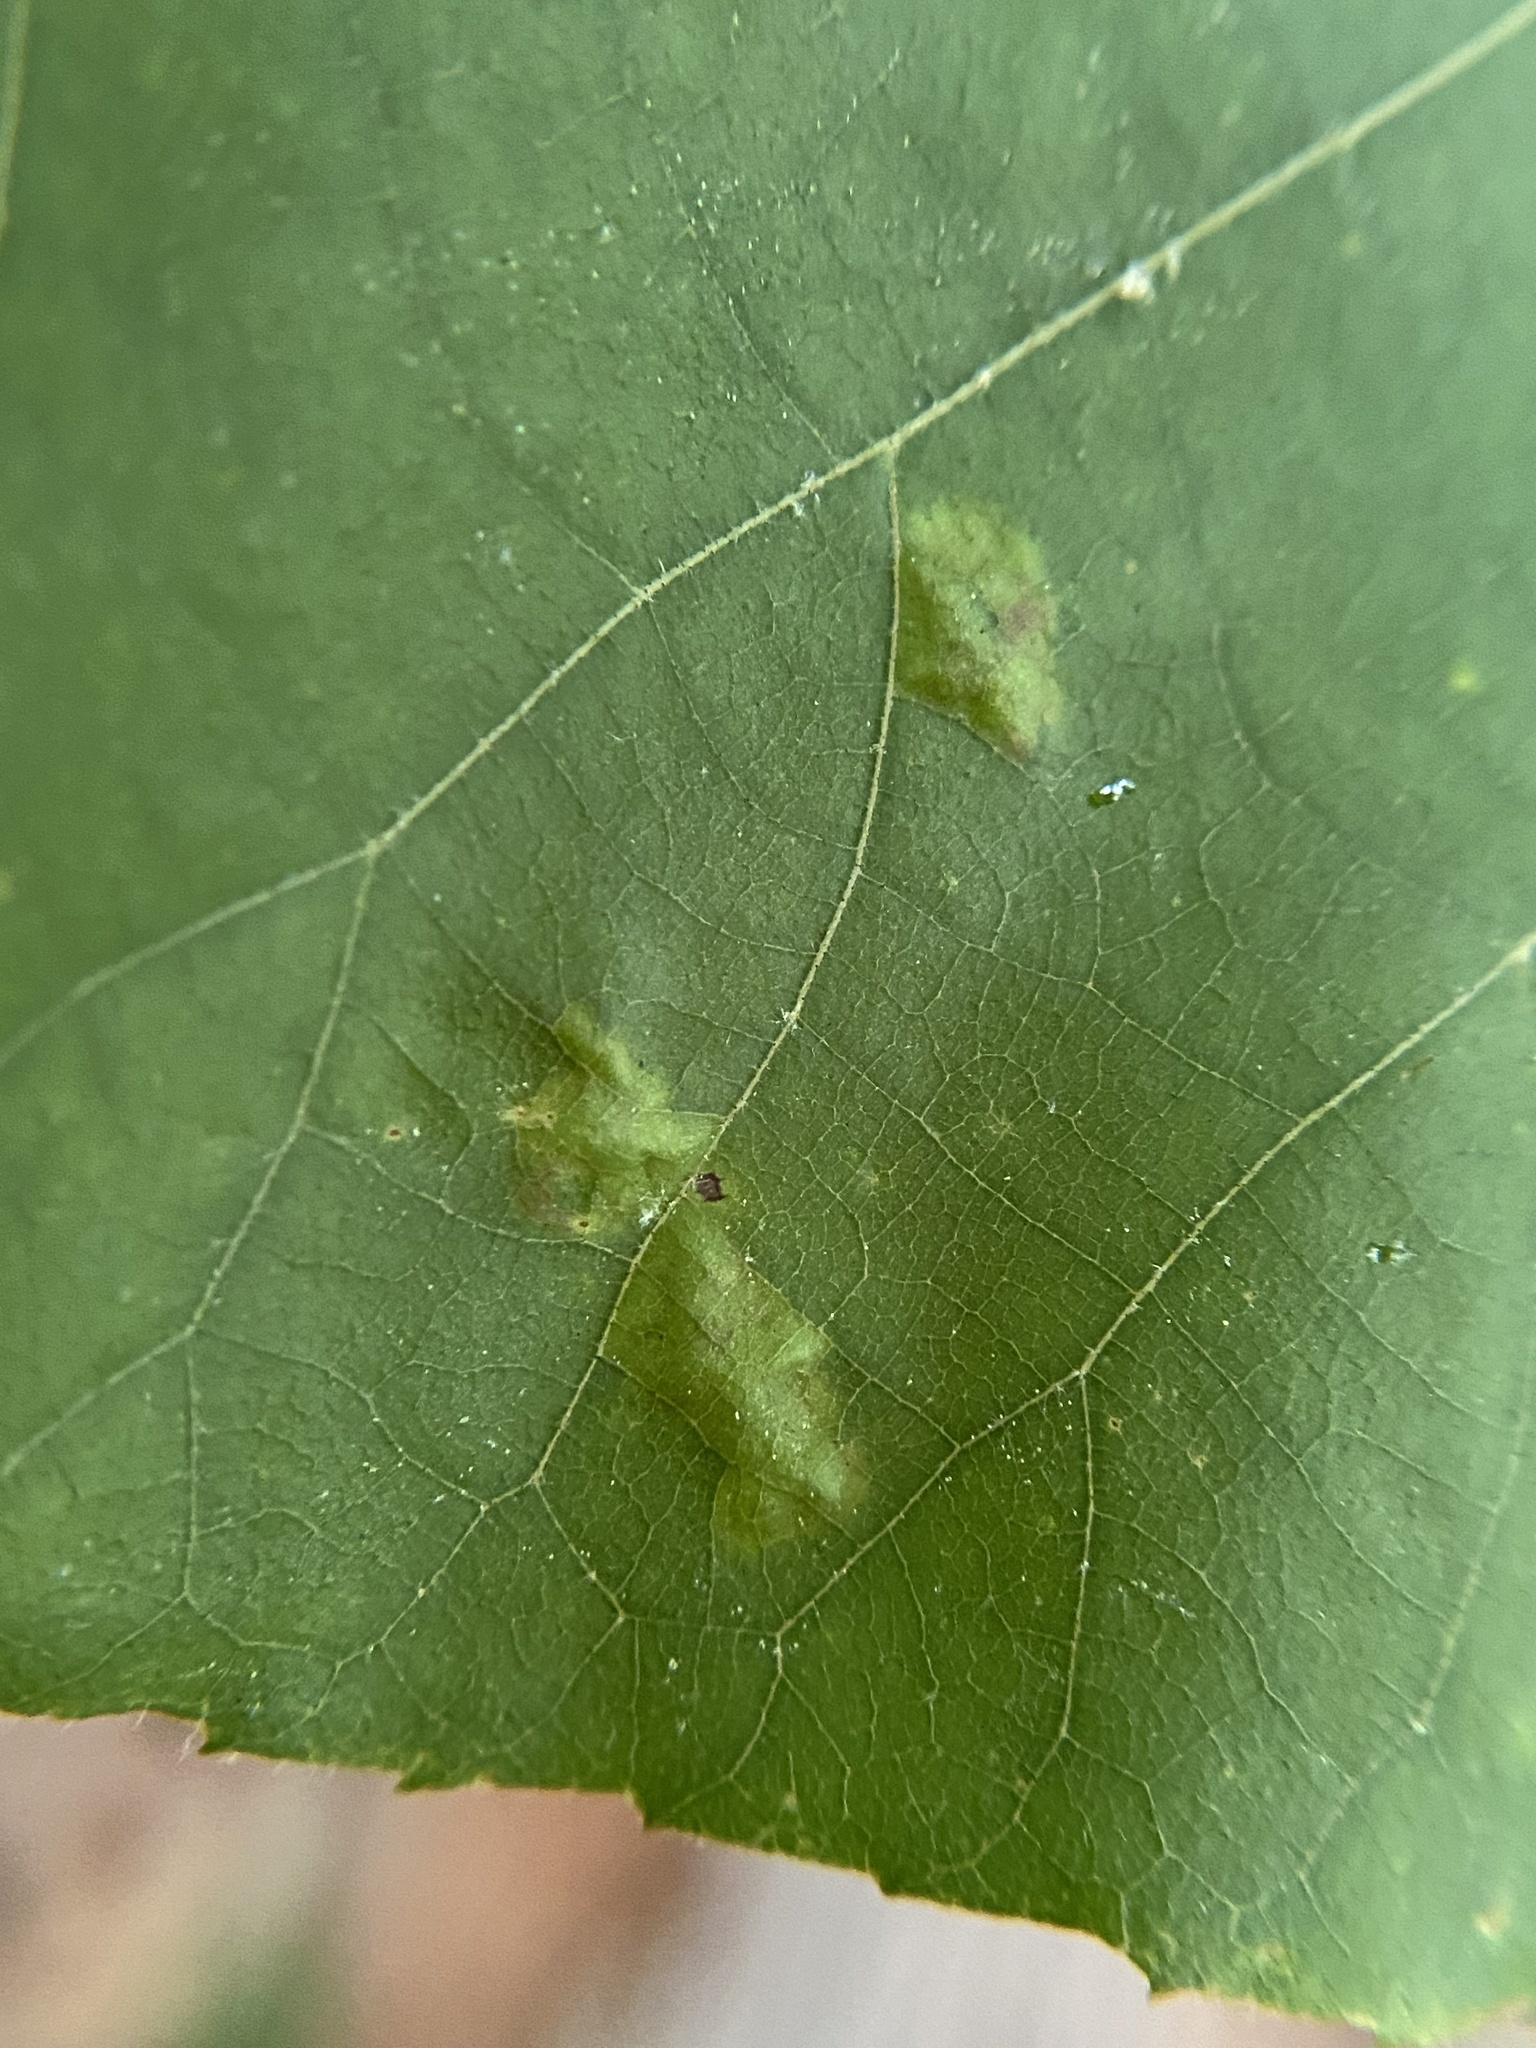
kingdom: Animalia
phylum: Arthropoda
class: Insecta
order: Diptera
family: Cecidomyiidae
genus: Gliaspilota
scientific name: Gliaspilota glutinosa
